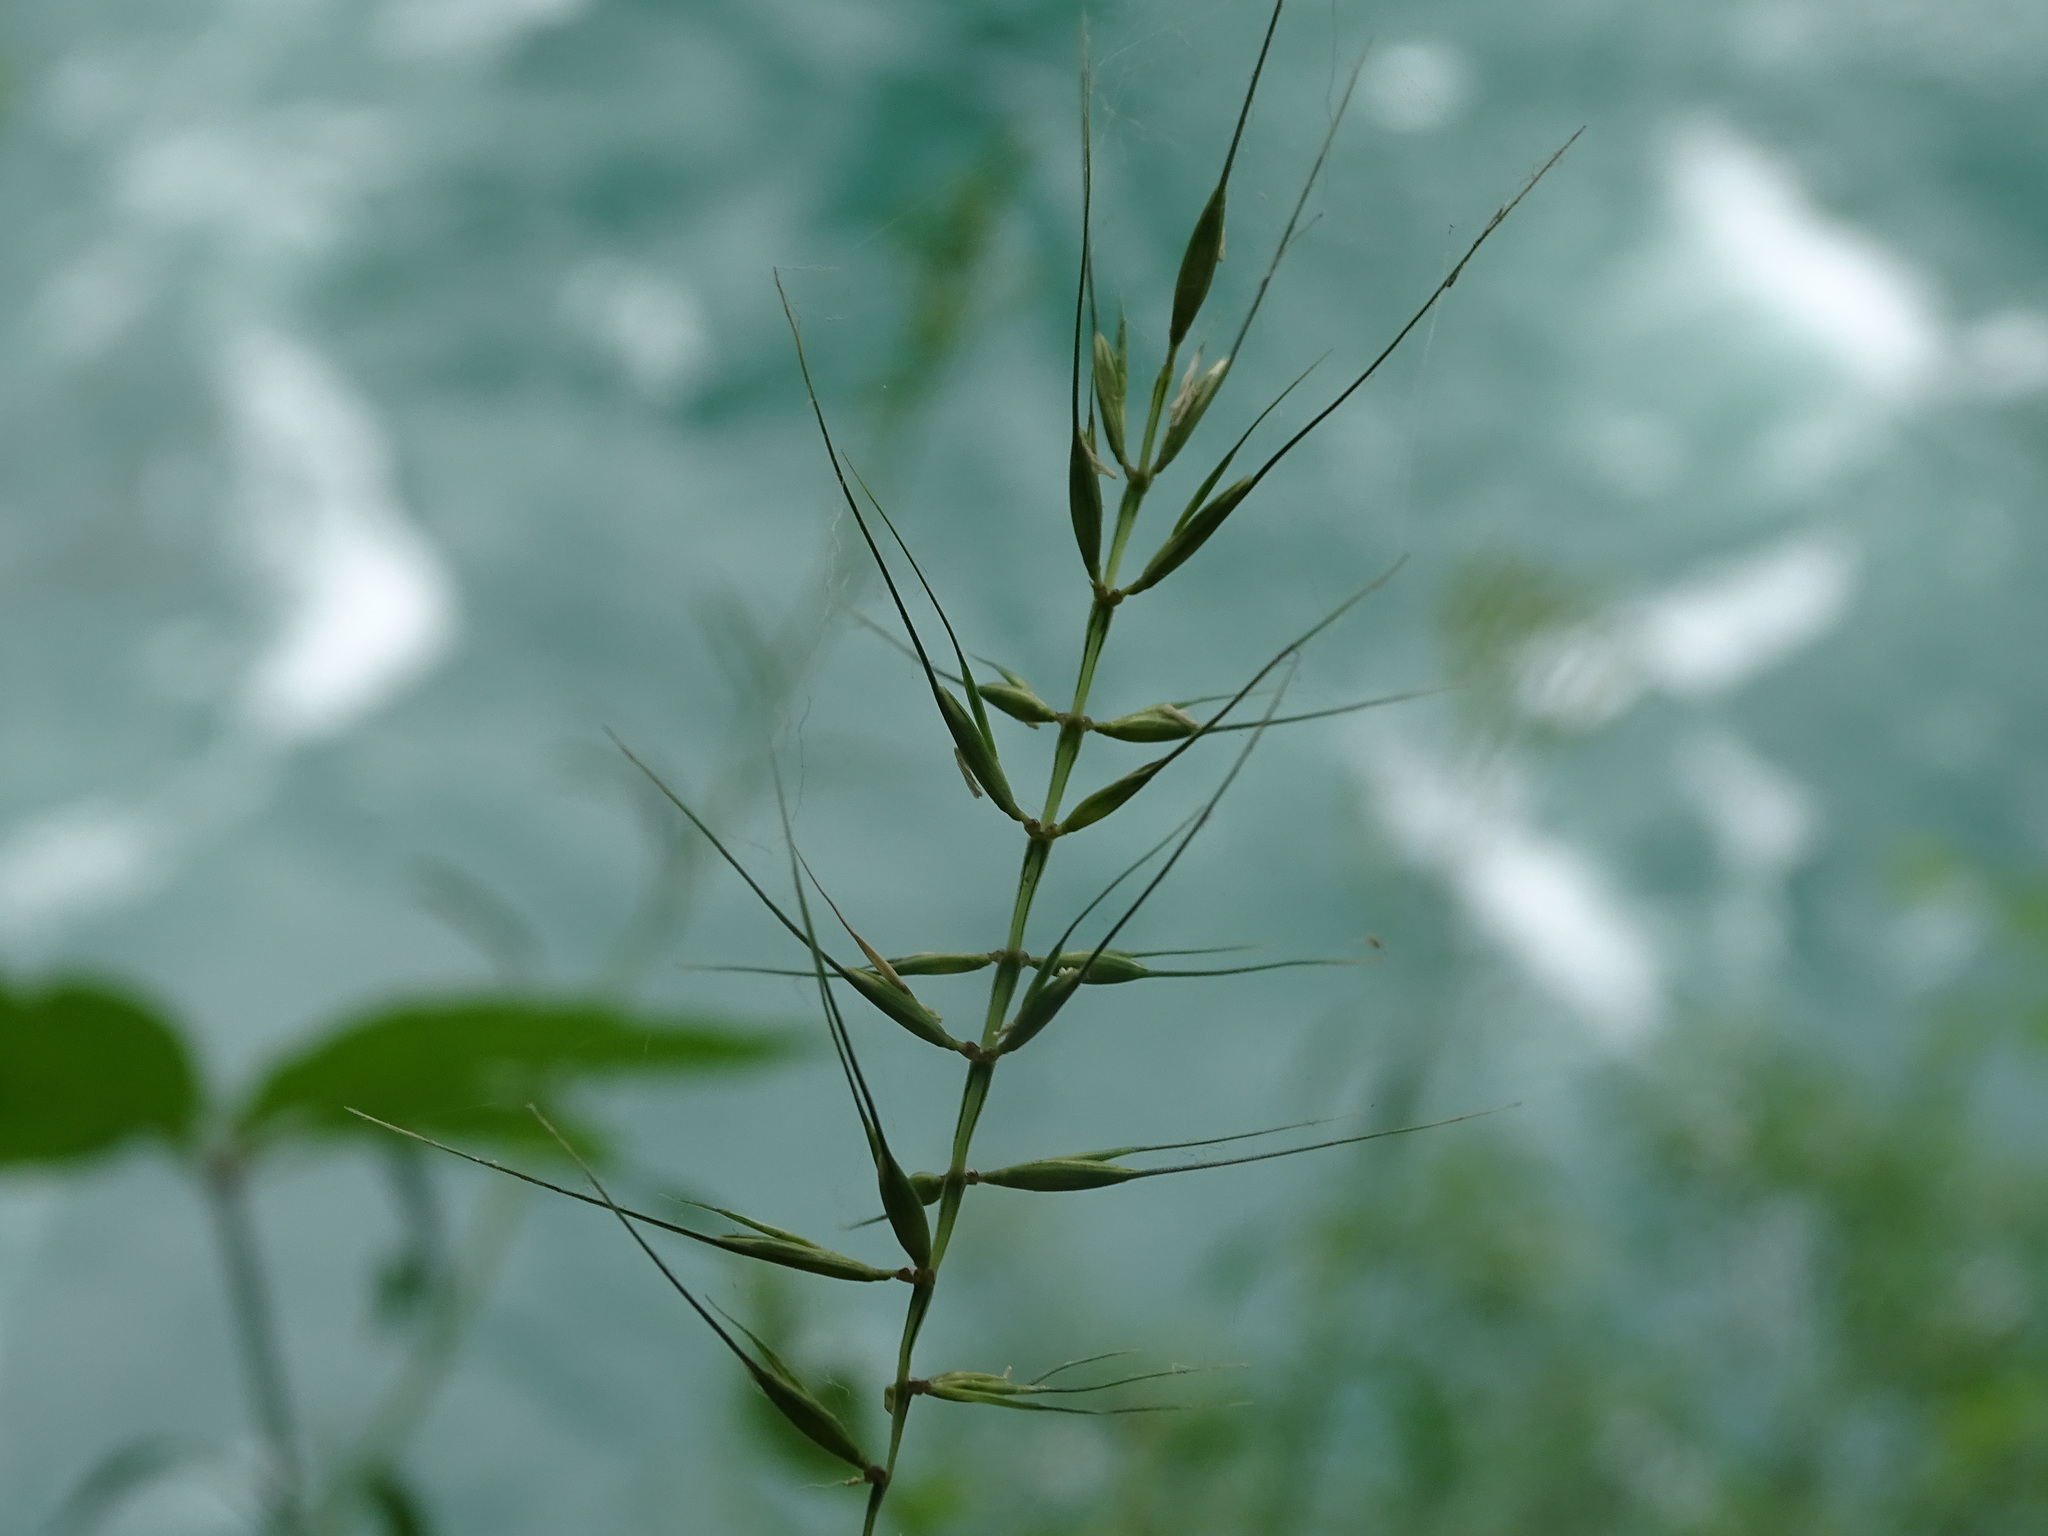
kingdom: Plantae
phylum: Tracheophyta
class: Liliopsida
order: Poales
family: Poaceae
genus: Elymus
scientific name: Elymus hystrix
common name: Bottlebrush grass
